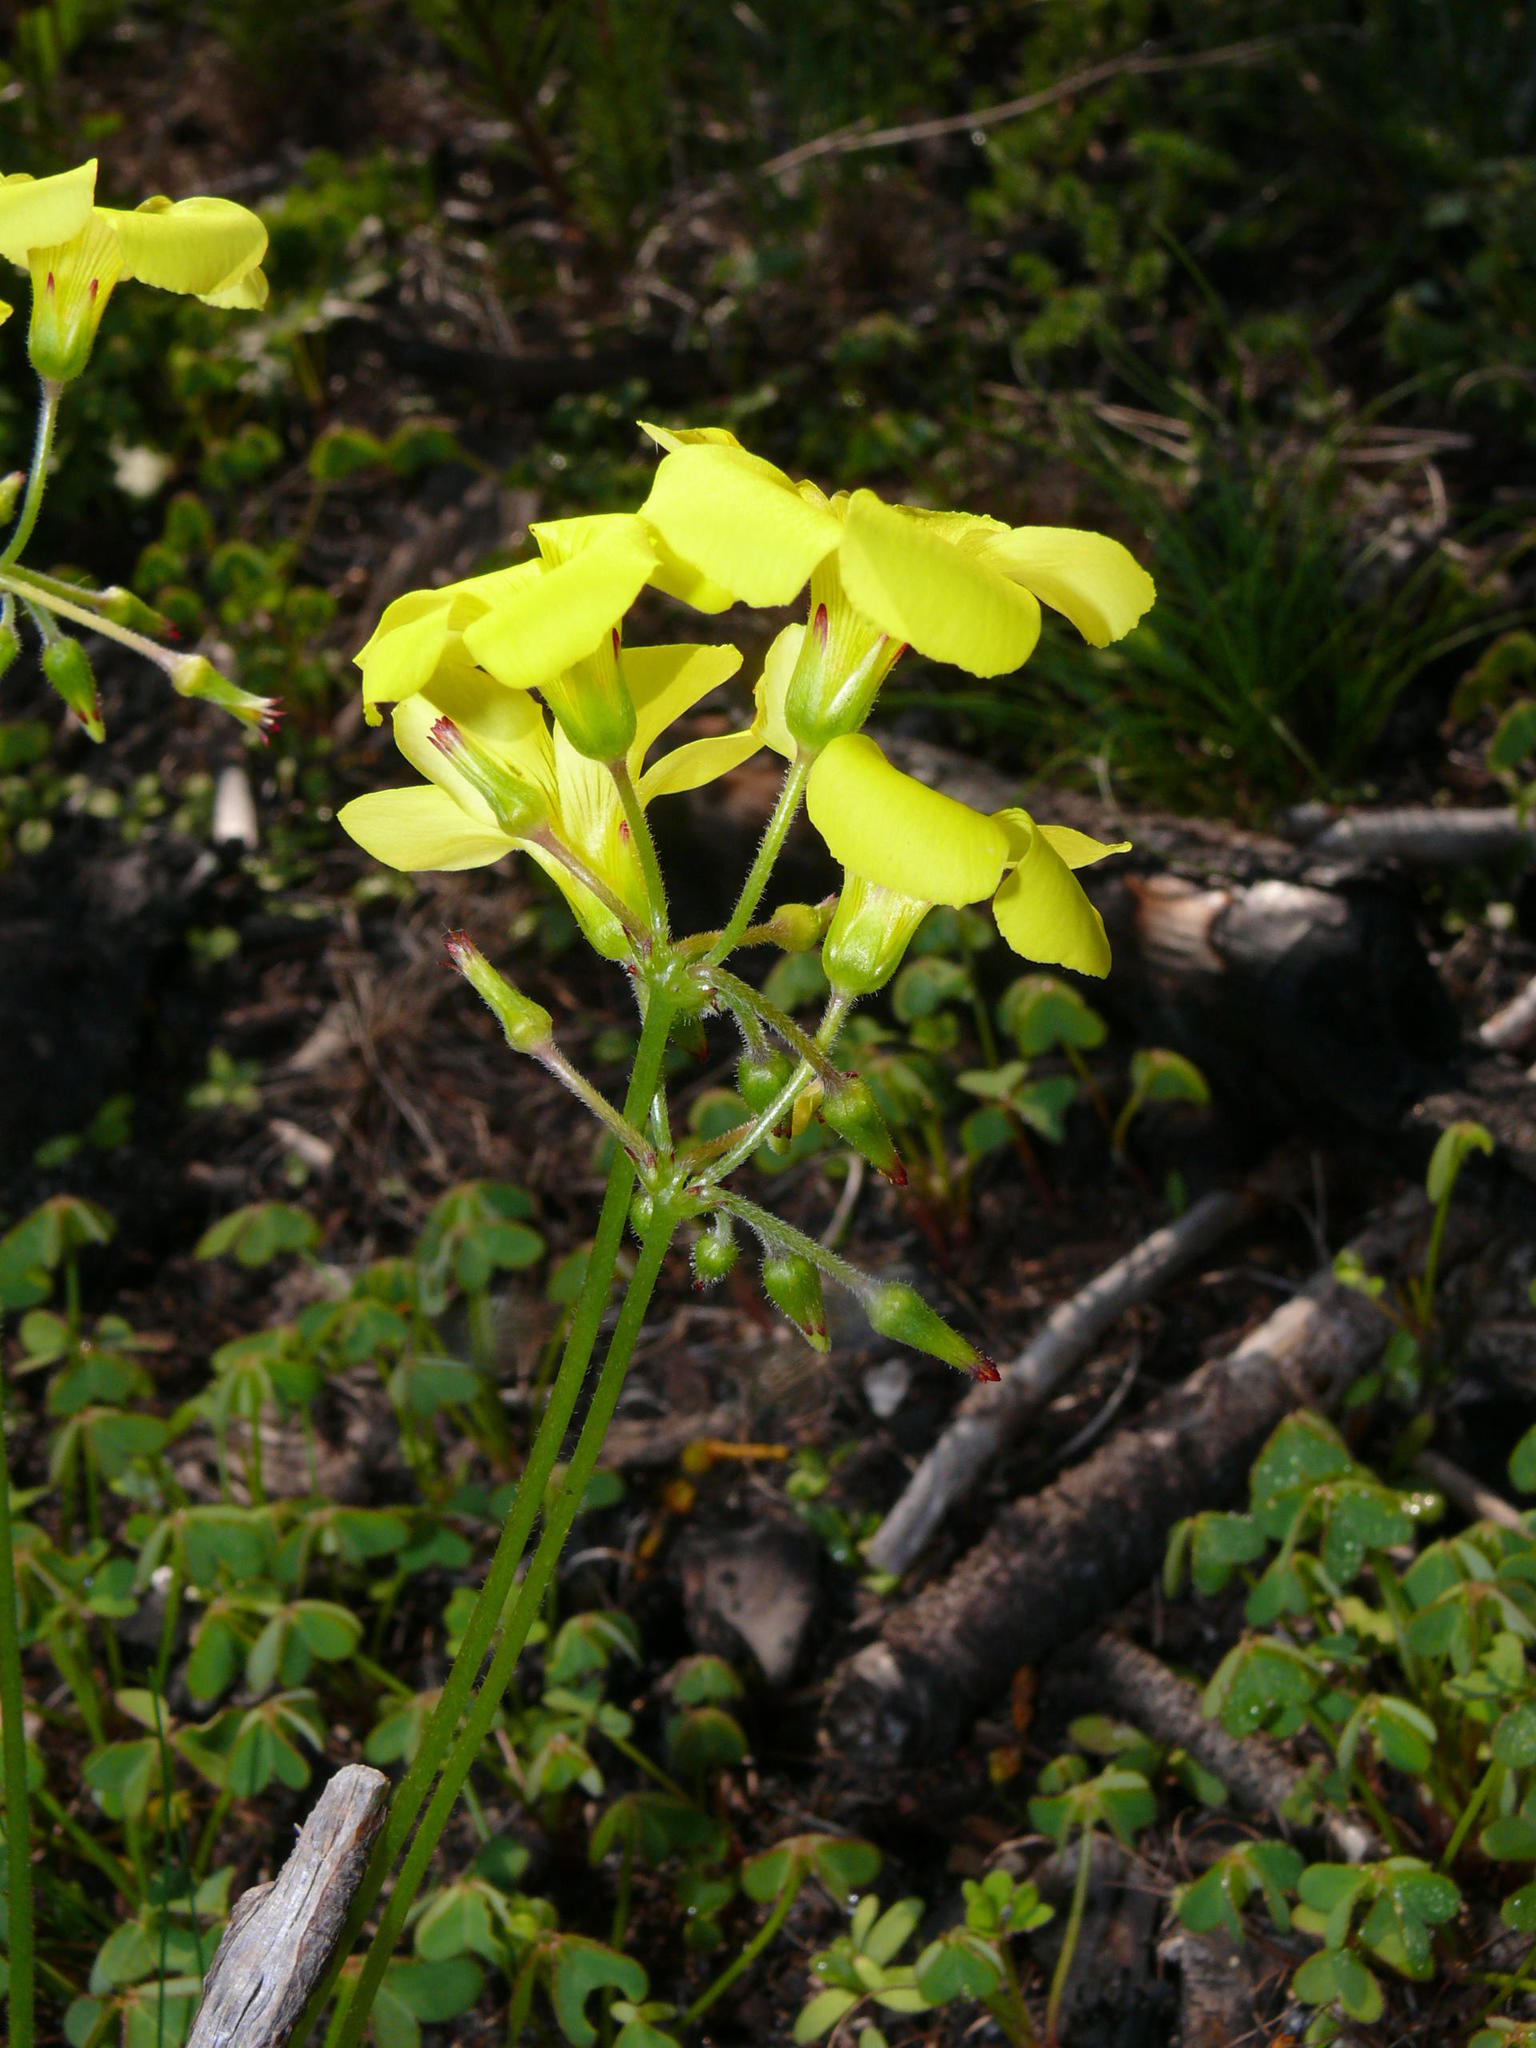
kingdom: Plantae
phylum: Tracheophyta
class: Magnoliopsida
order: Oxalidales
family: Oxalidaceae
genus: Oxalis
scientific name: Oxalis pes-caprae
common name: Bermuda-buttercup
